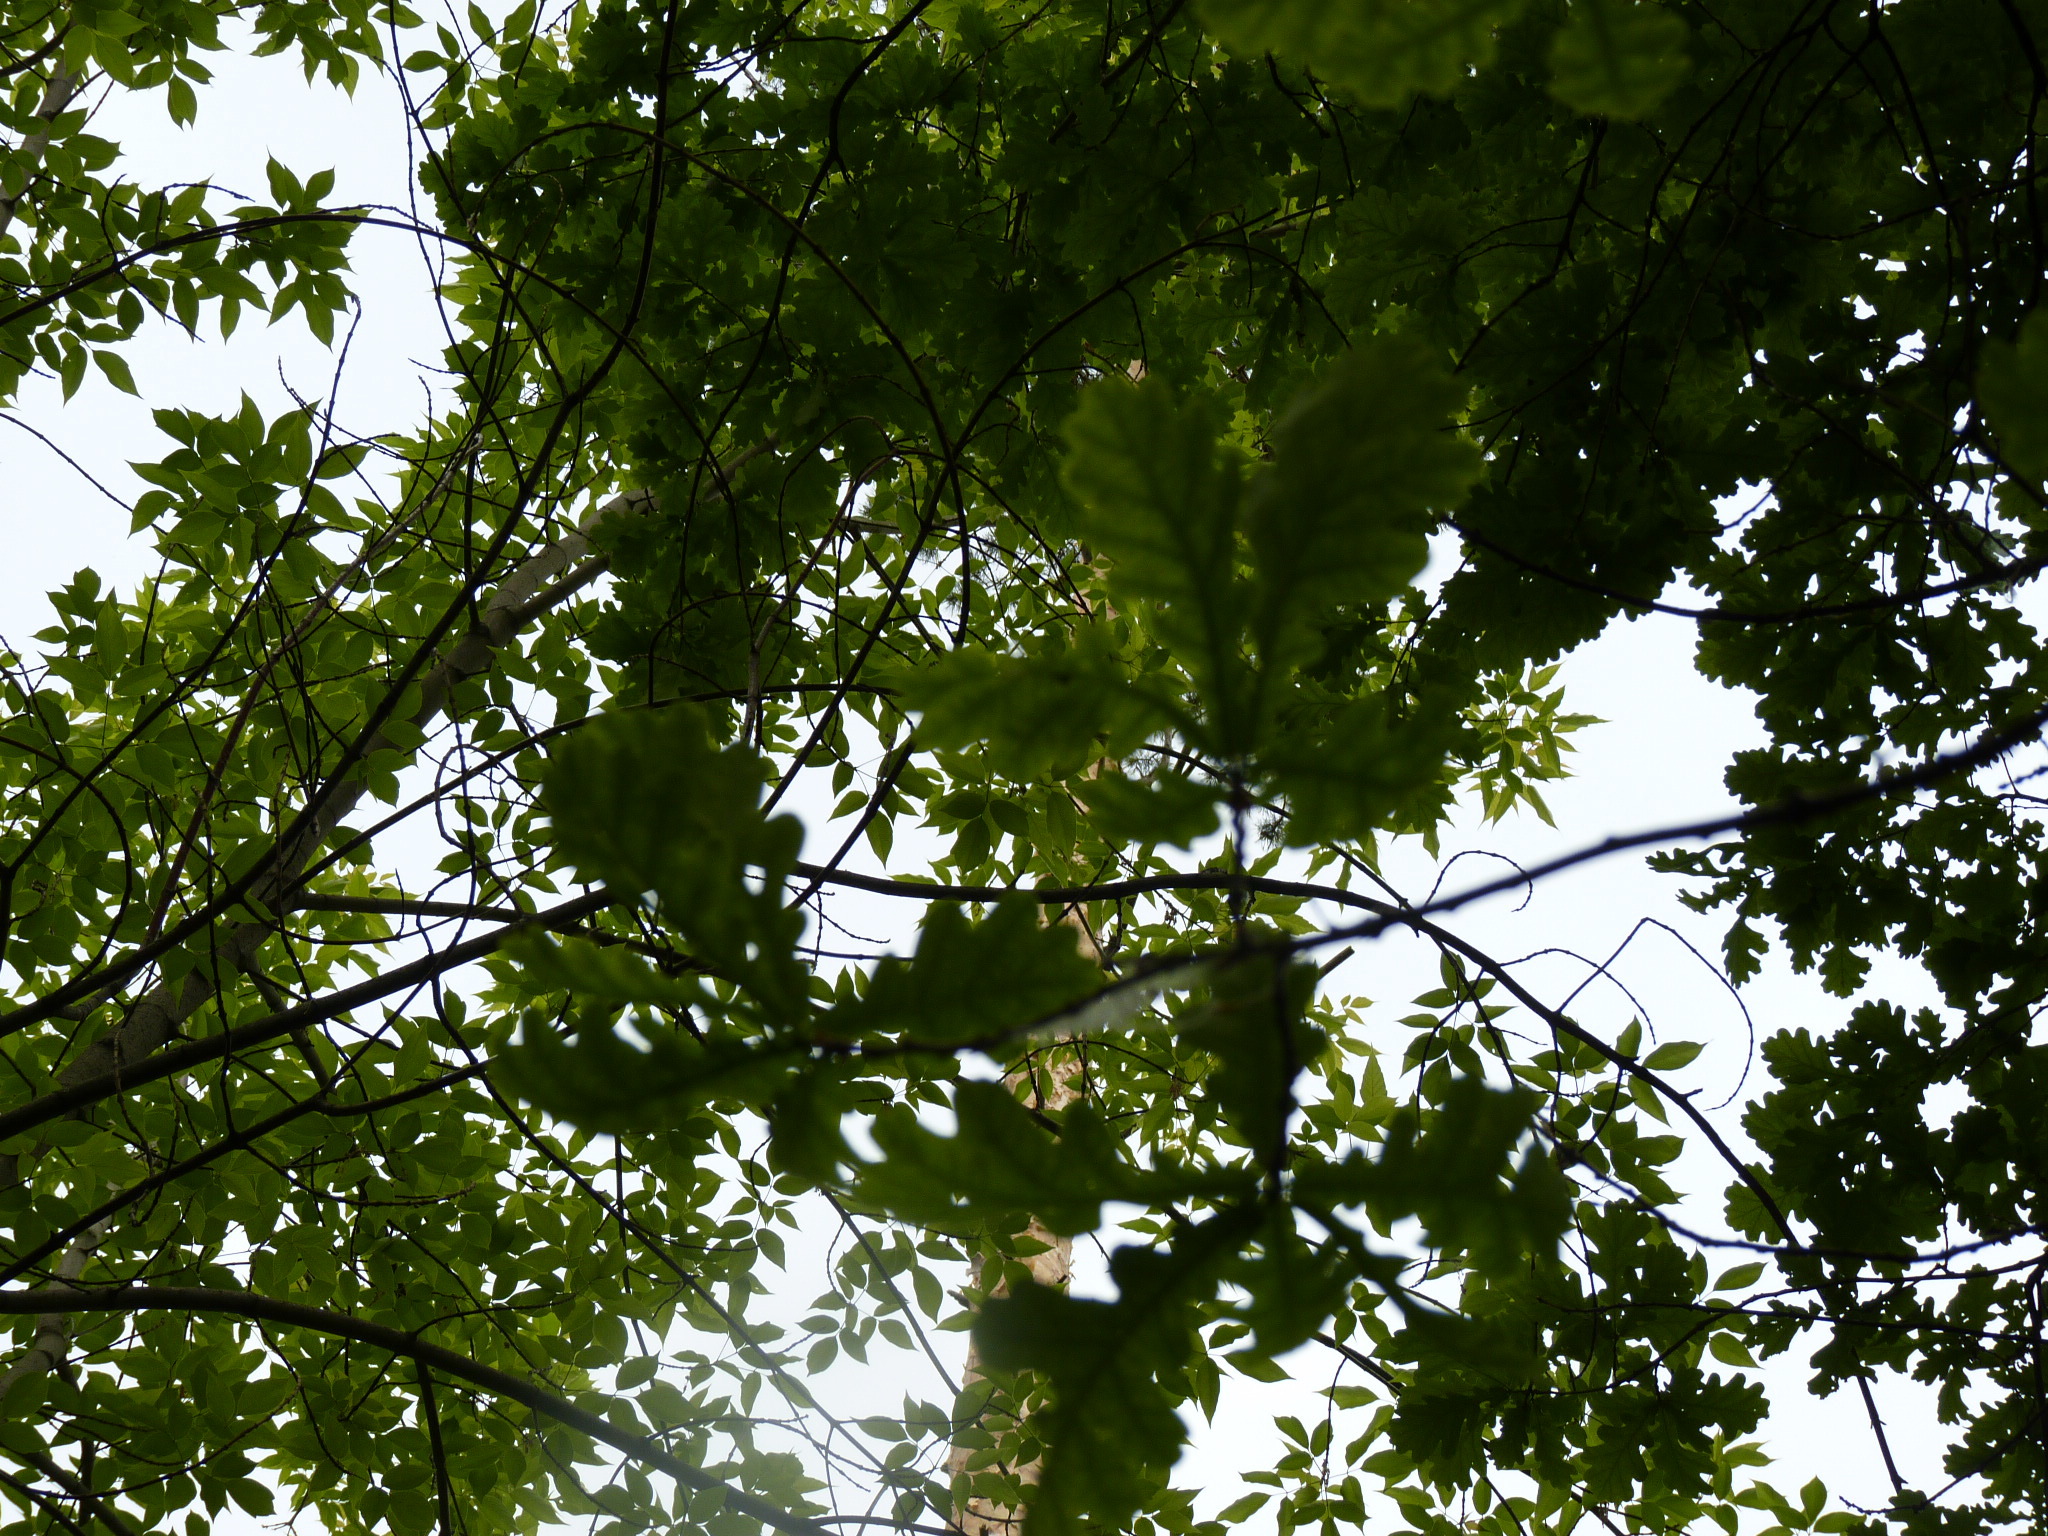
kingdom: Plantae
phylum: Tracheophyta
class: Magnoliopsida
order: Fagales
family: Fagaceae
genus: Quercus
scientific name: Quercus robur
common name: Pedunculate oak
